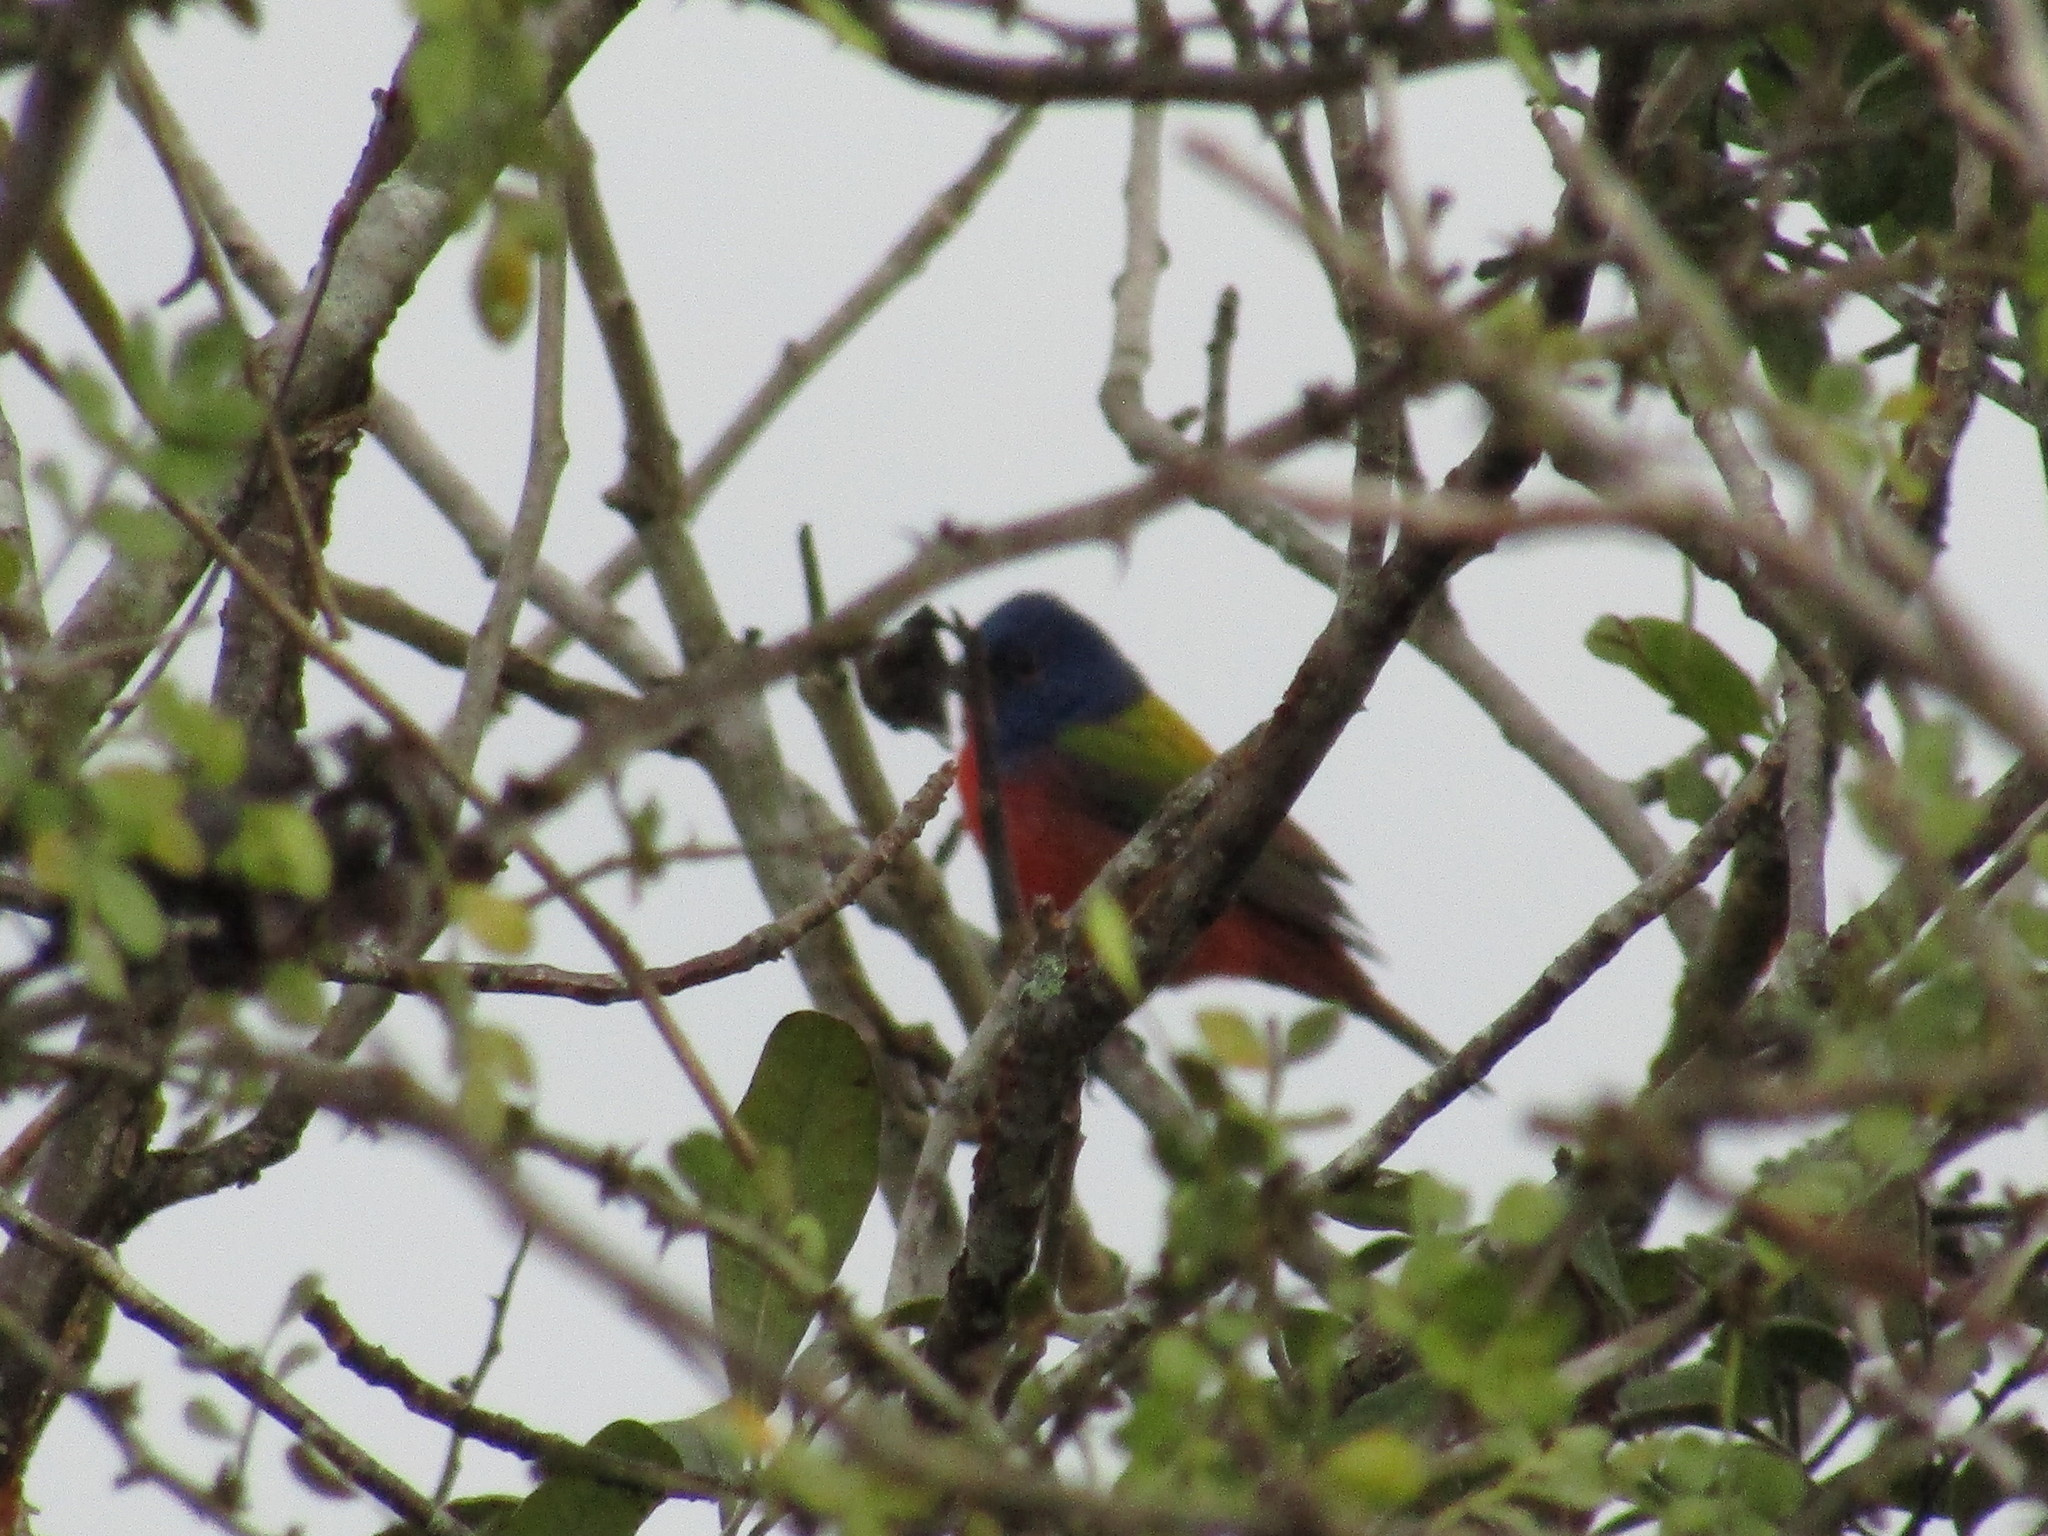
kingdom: Animalia
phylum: Chordata
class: Aves
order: Passeriformes
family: Cardinalidae
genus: Passerina
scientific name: Passerina ciris
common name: Painted bunting
